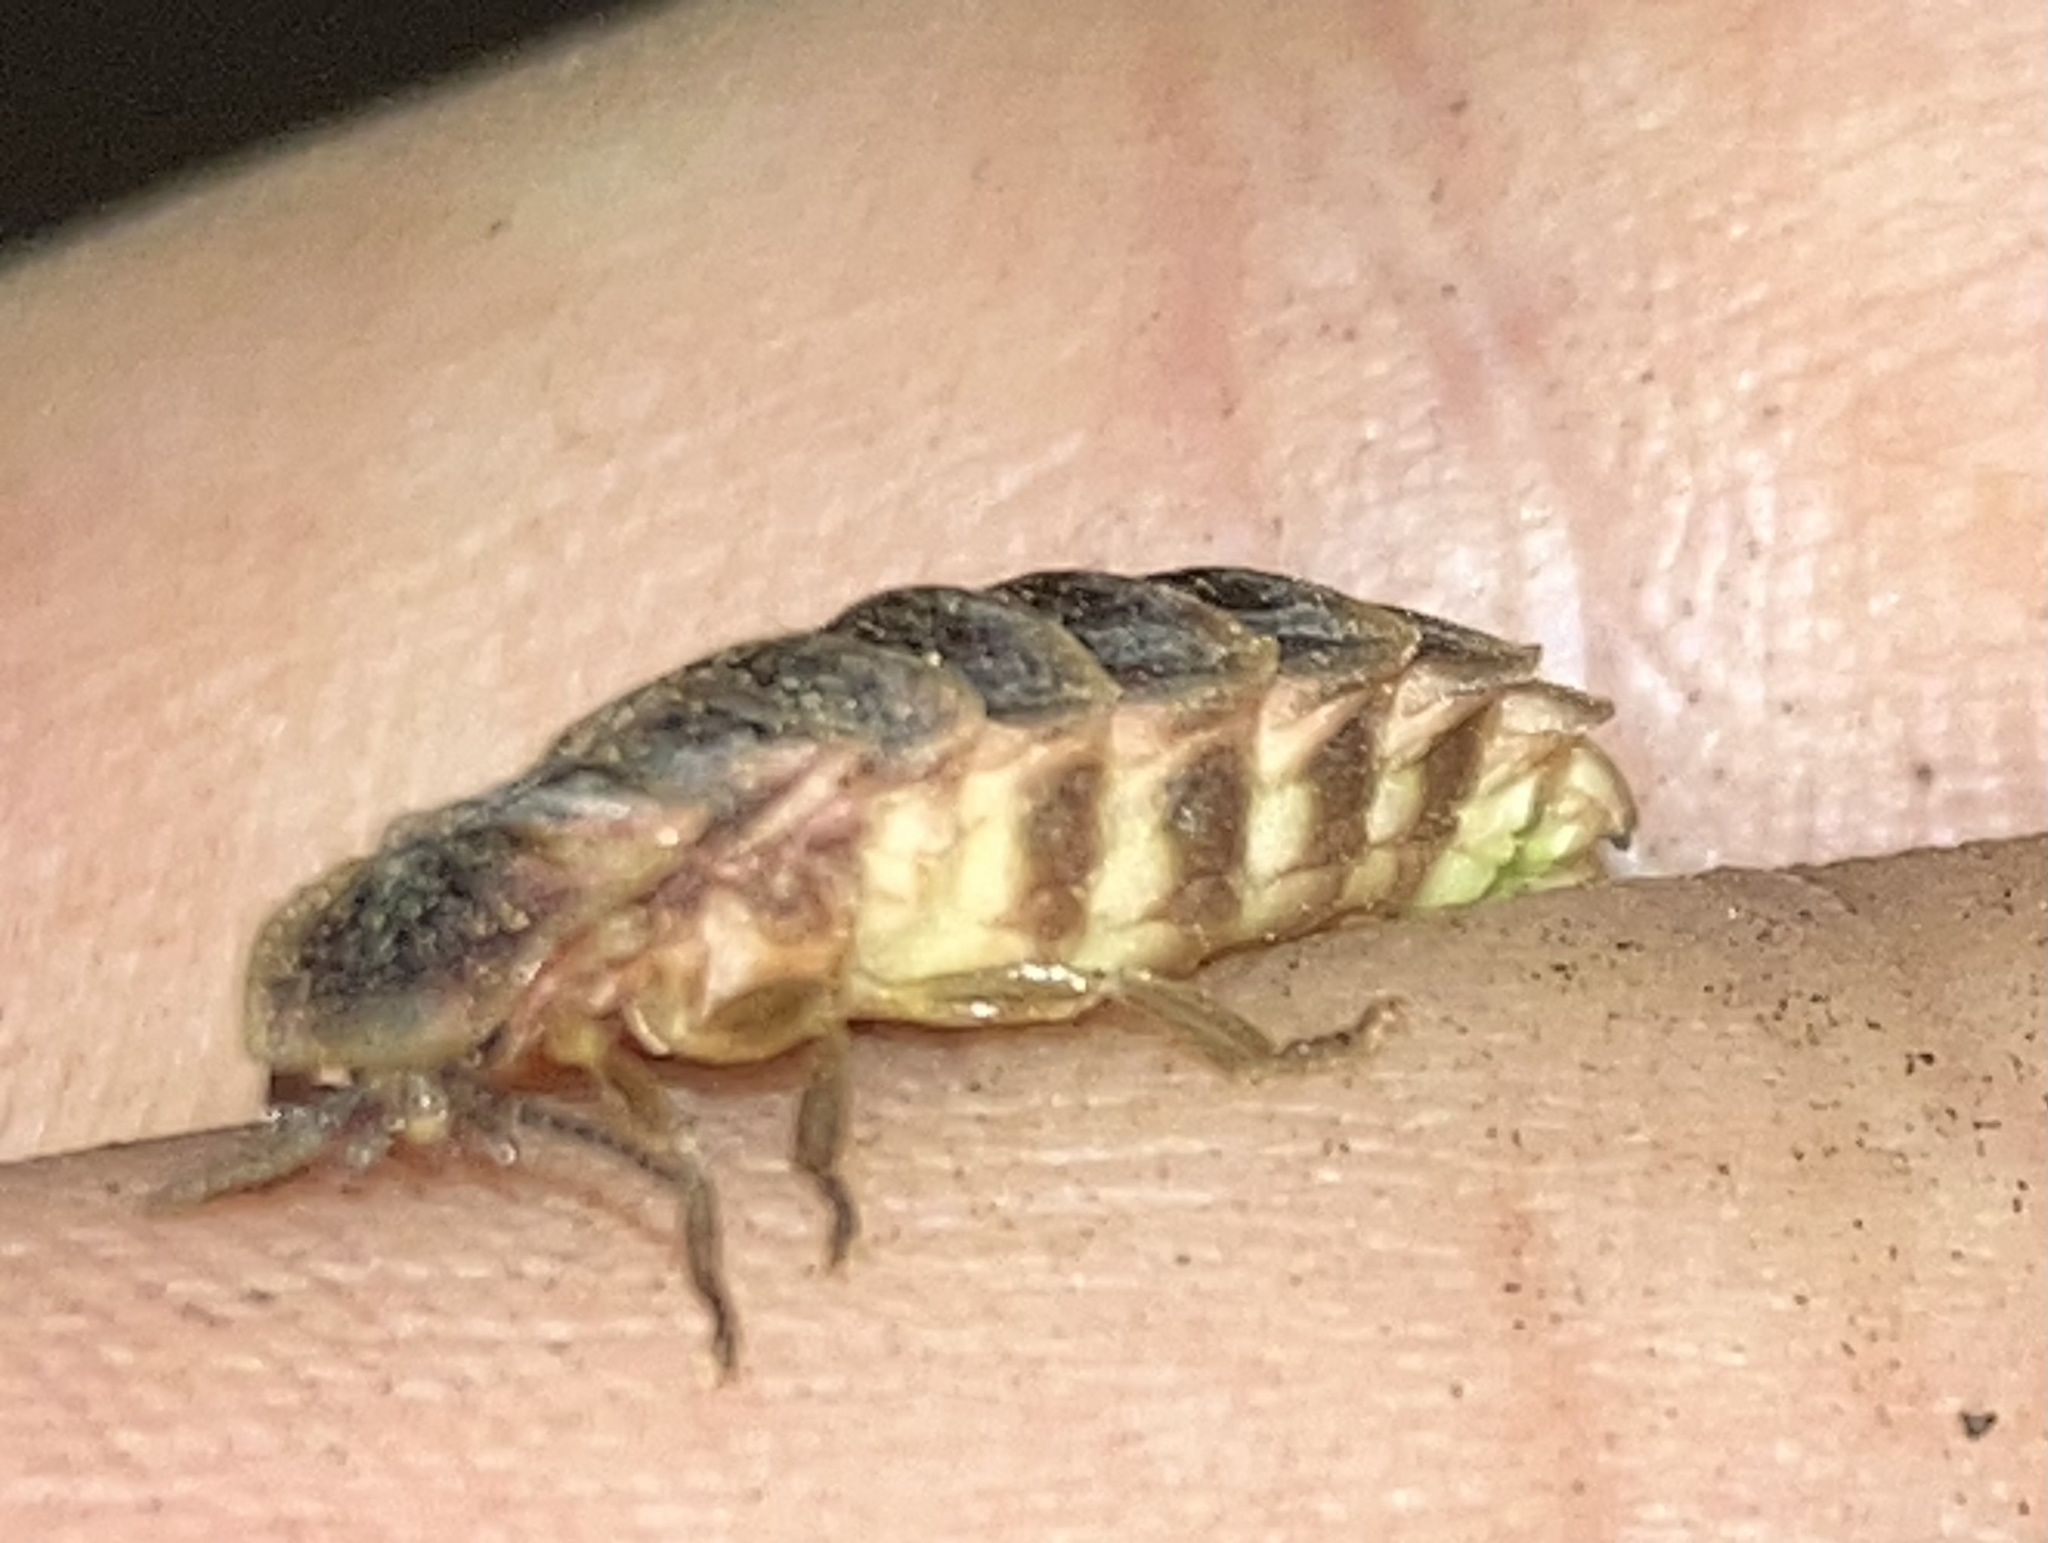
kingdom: Animalia
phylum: Arthropoda
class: Insecta
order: Coleoptera
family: Lampyridae
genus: Lampyris
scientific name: Lampyris noctiluca
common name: Glow-worm
